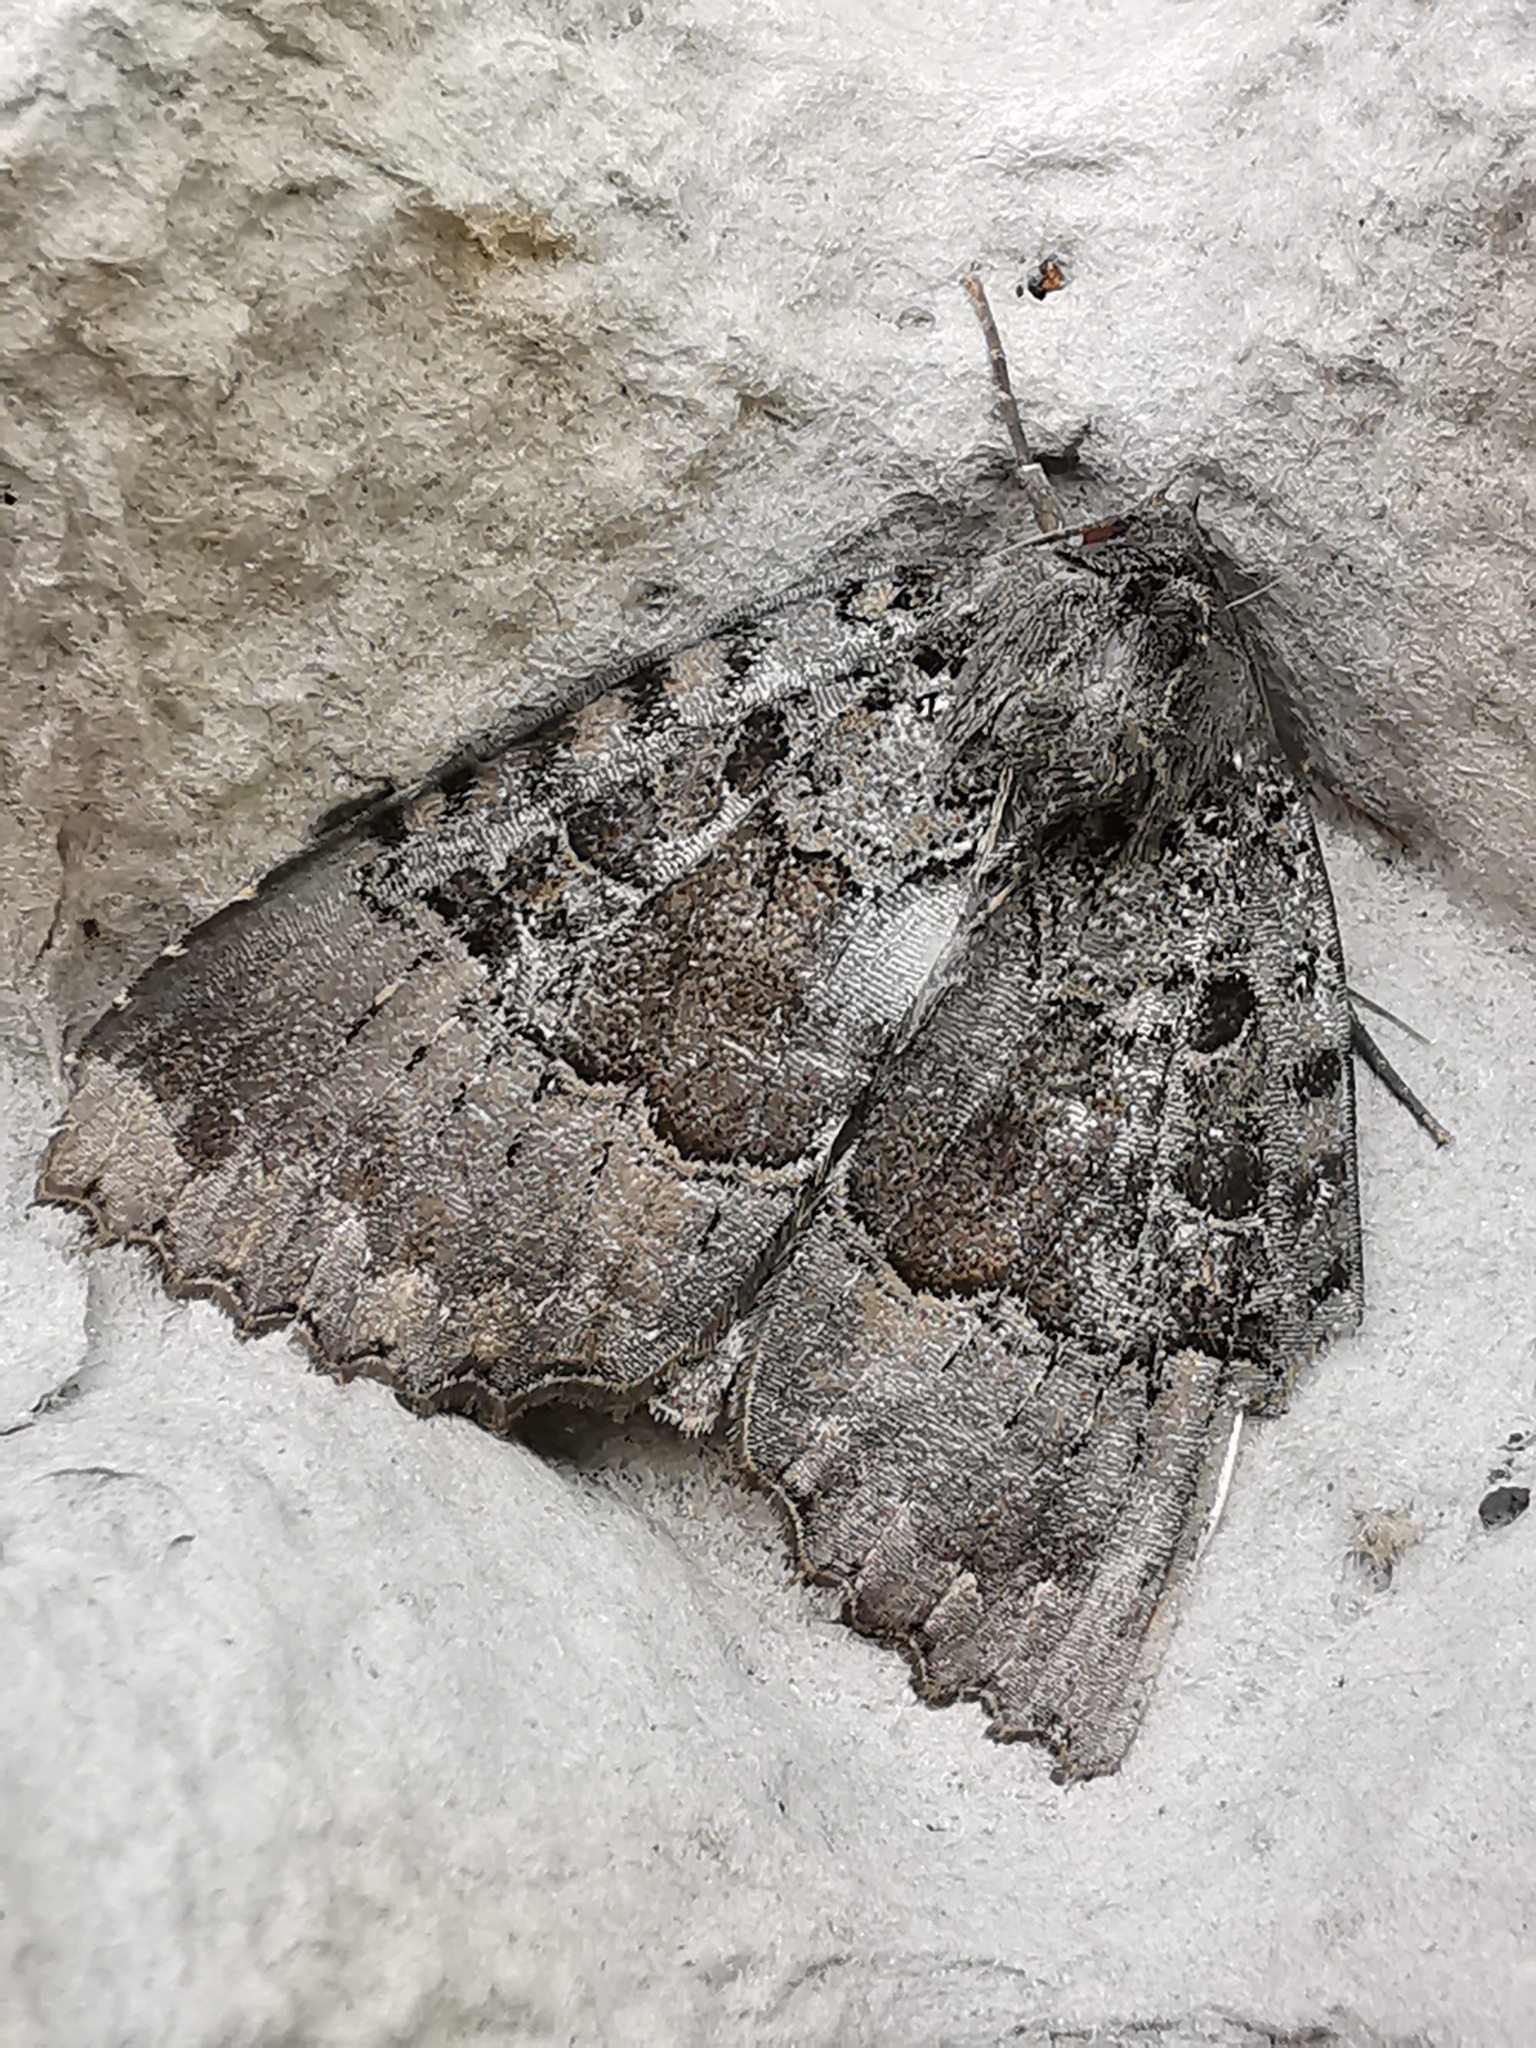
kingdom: Animalia
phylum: Arthropoda
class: Insecta
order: Lepidoptera
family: Noctuidae
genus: Mormo
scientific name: Mormo maura
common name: Old lady
